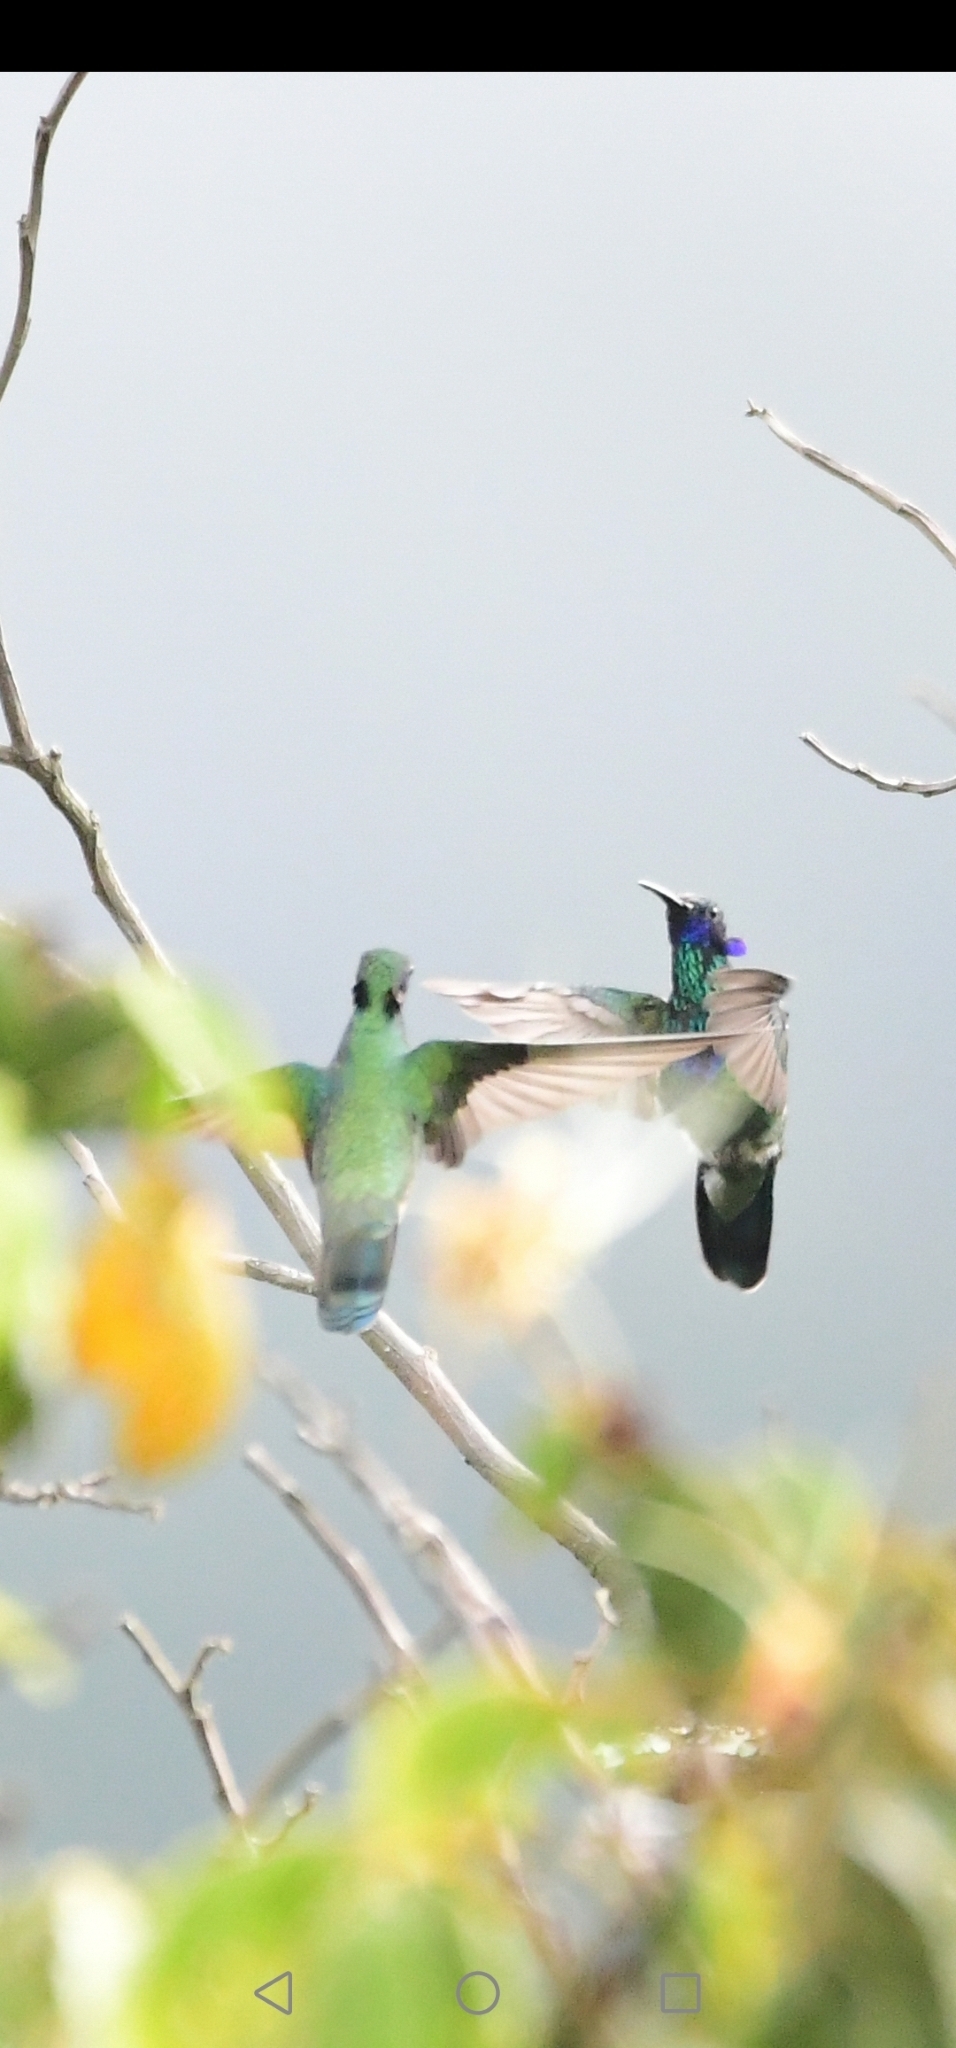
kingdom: Animalia
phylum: Chordata
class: Aves
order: Apodiformes
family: Trochilidae
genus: Colibri
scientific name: Colibri coruscans
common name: Sparkling violetear
